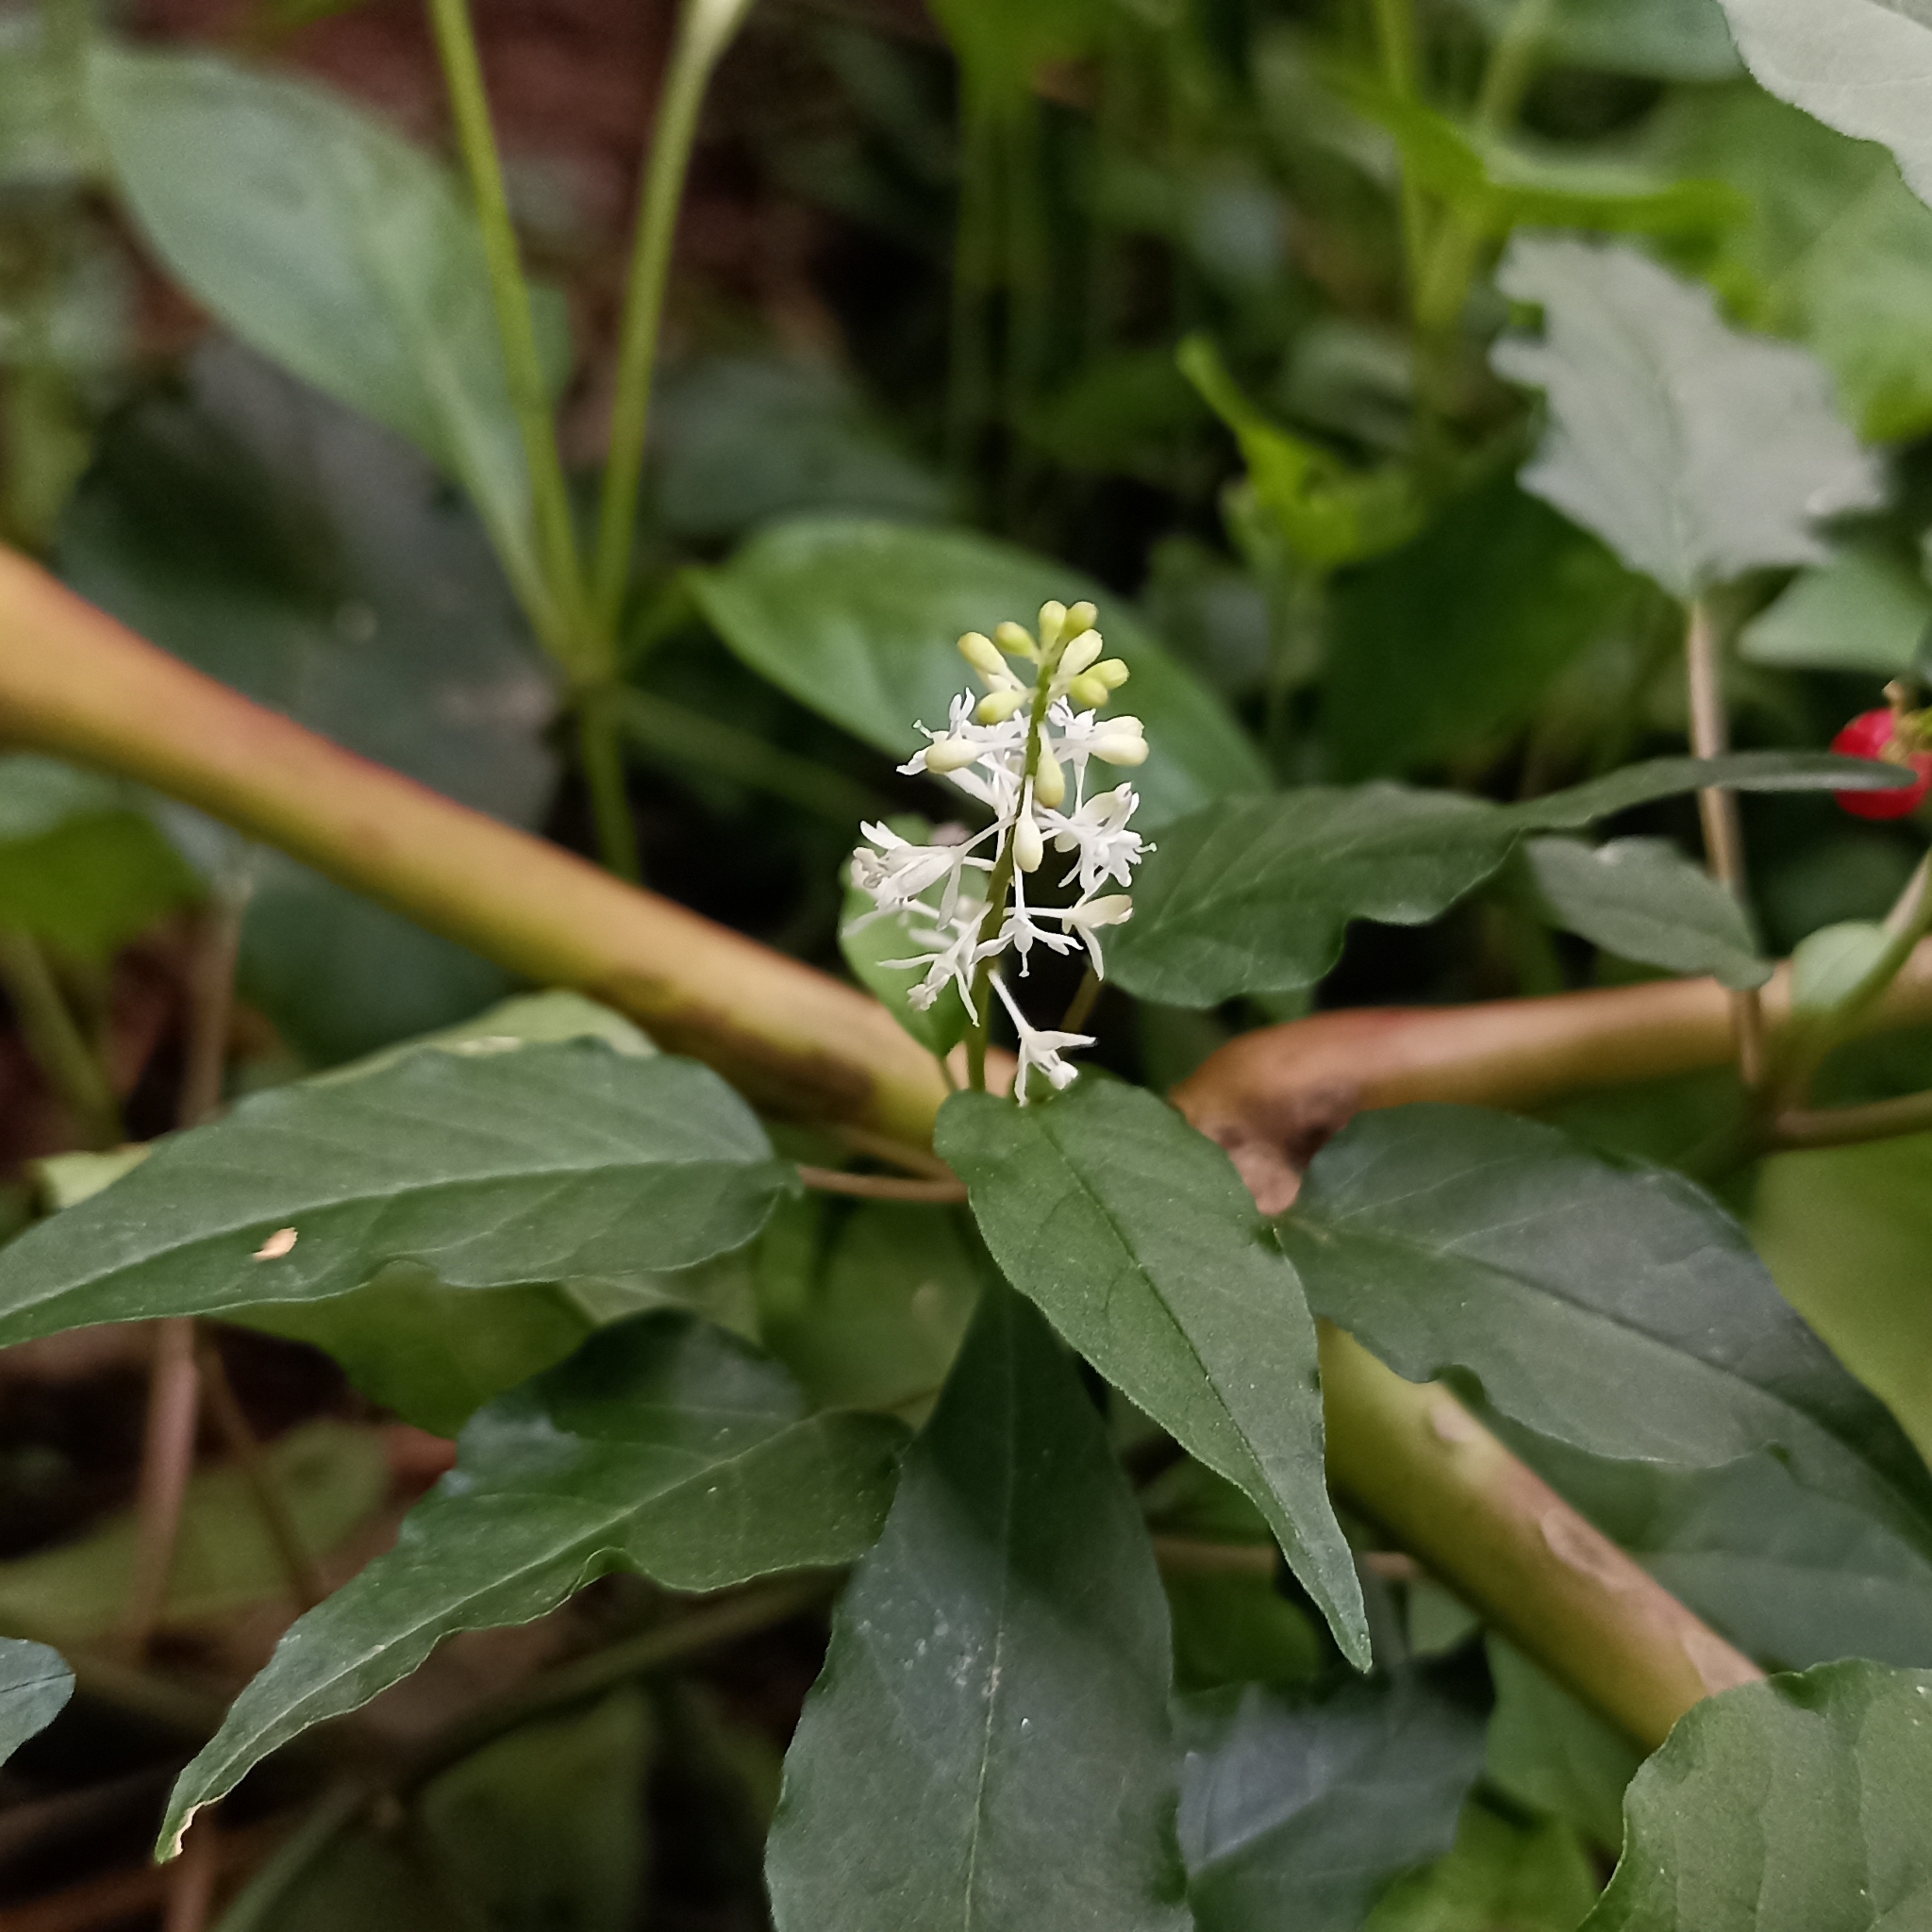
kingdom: Plantae
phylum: Tracheophyta
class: Magnoliopsida
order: Caryophyllales
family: Phytolaccaceae
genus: Rivina
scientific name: Rivina humilis
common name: Rougeplant
